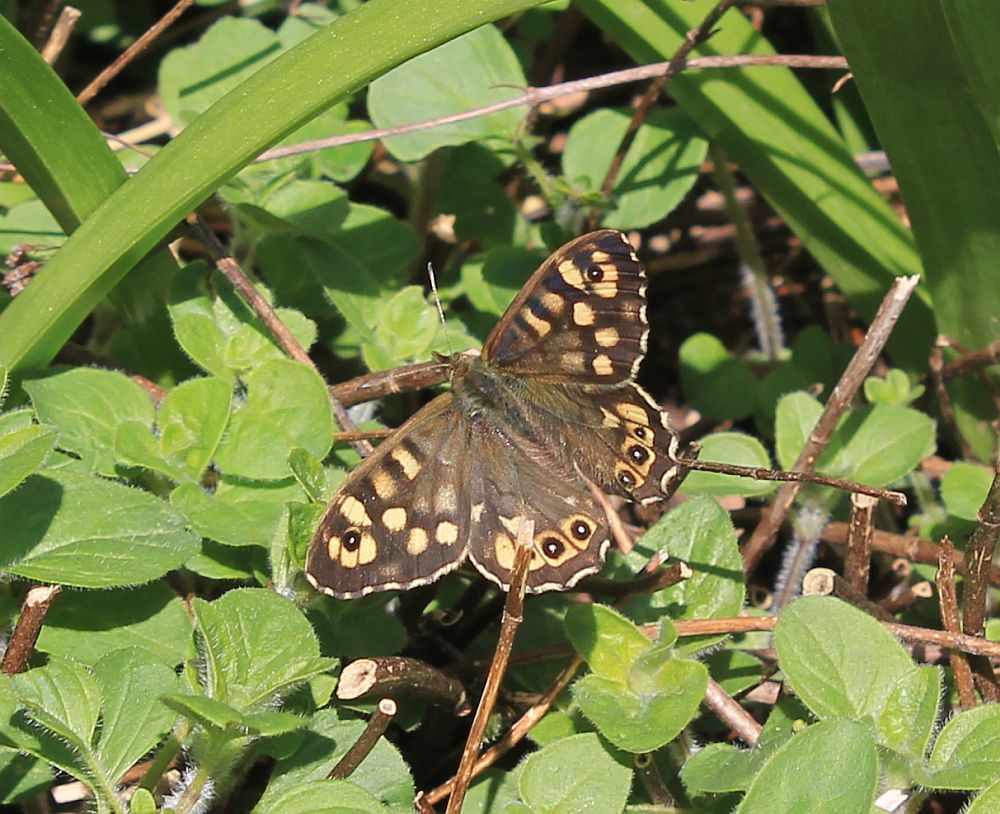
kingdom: Animalia
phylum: Arthropoda
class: Insecta
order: Lepidoptera
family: Nymphalidae
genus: Pararge
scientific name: Pararge aegeria
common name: Speckled wood
